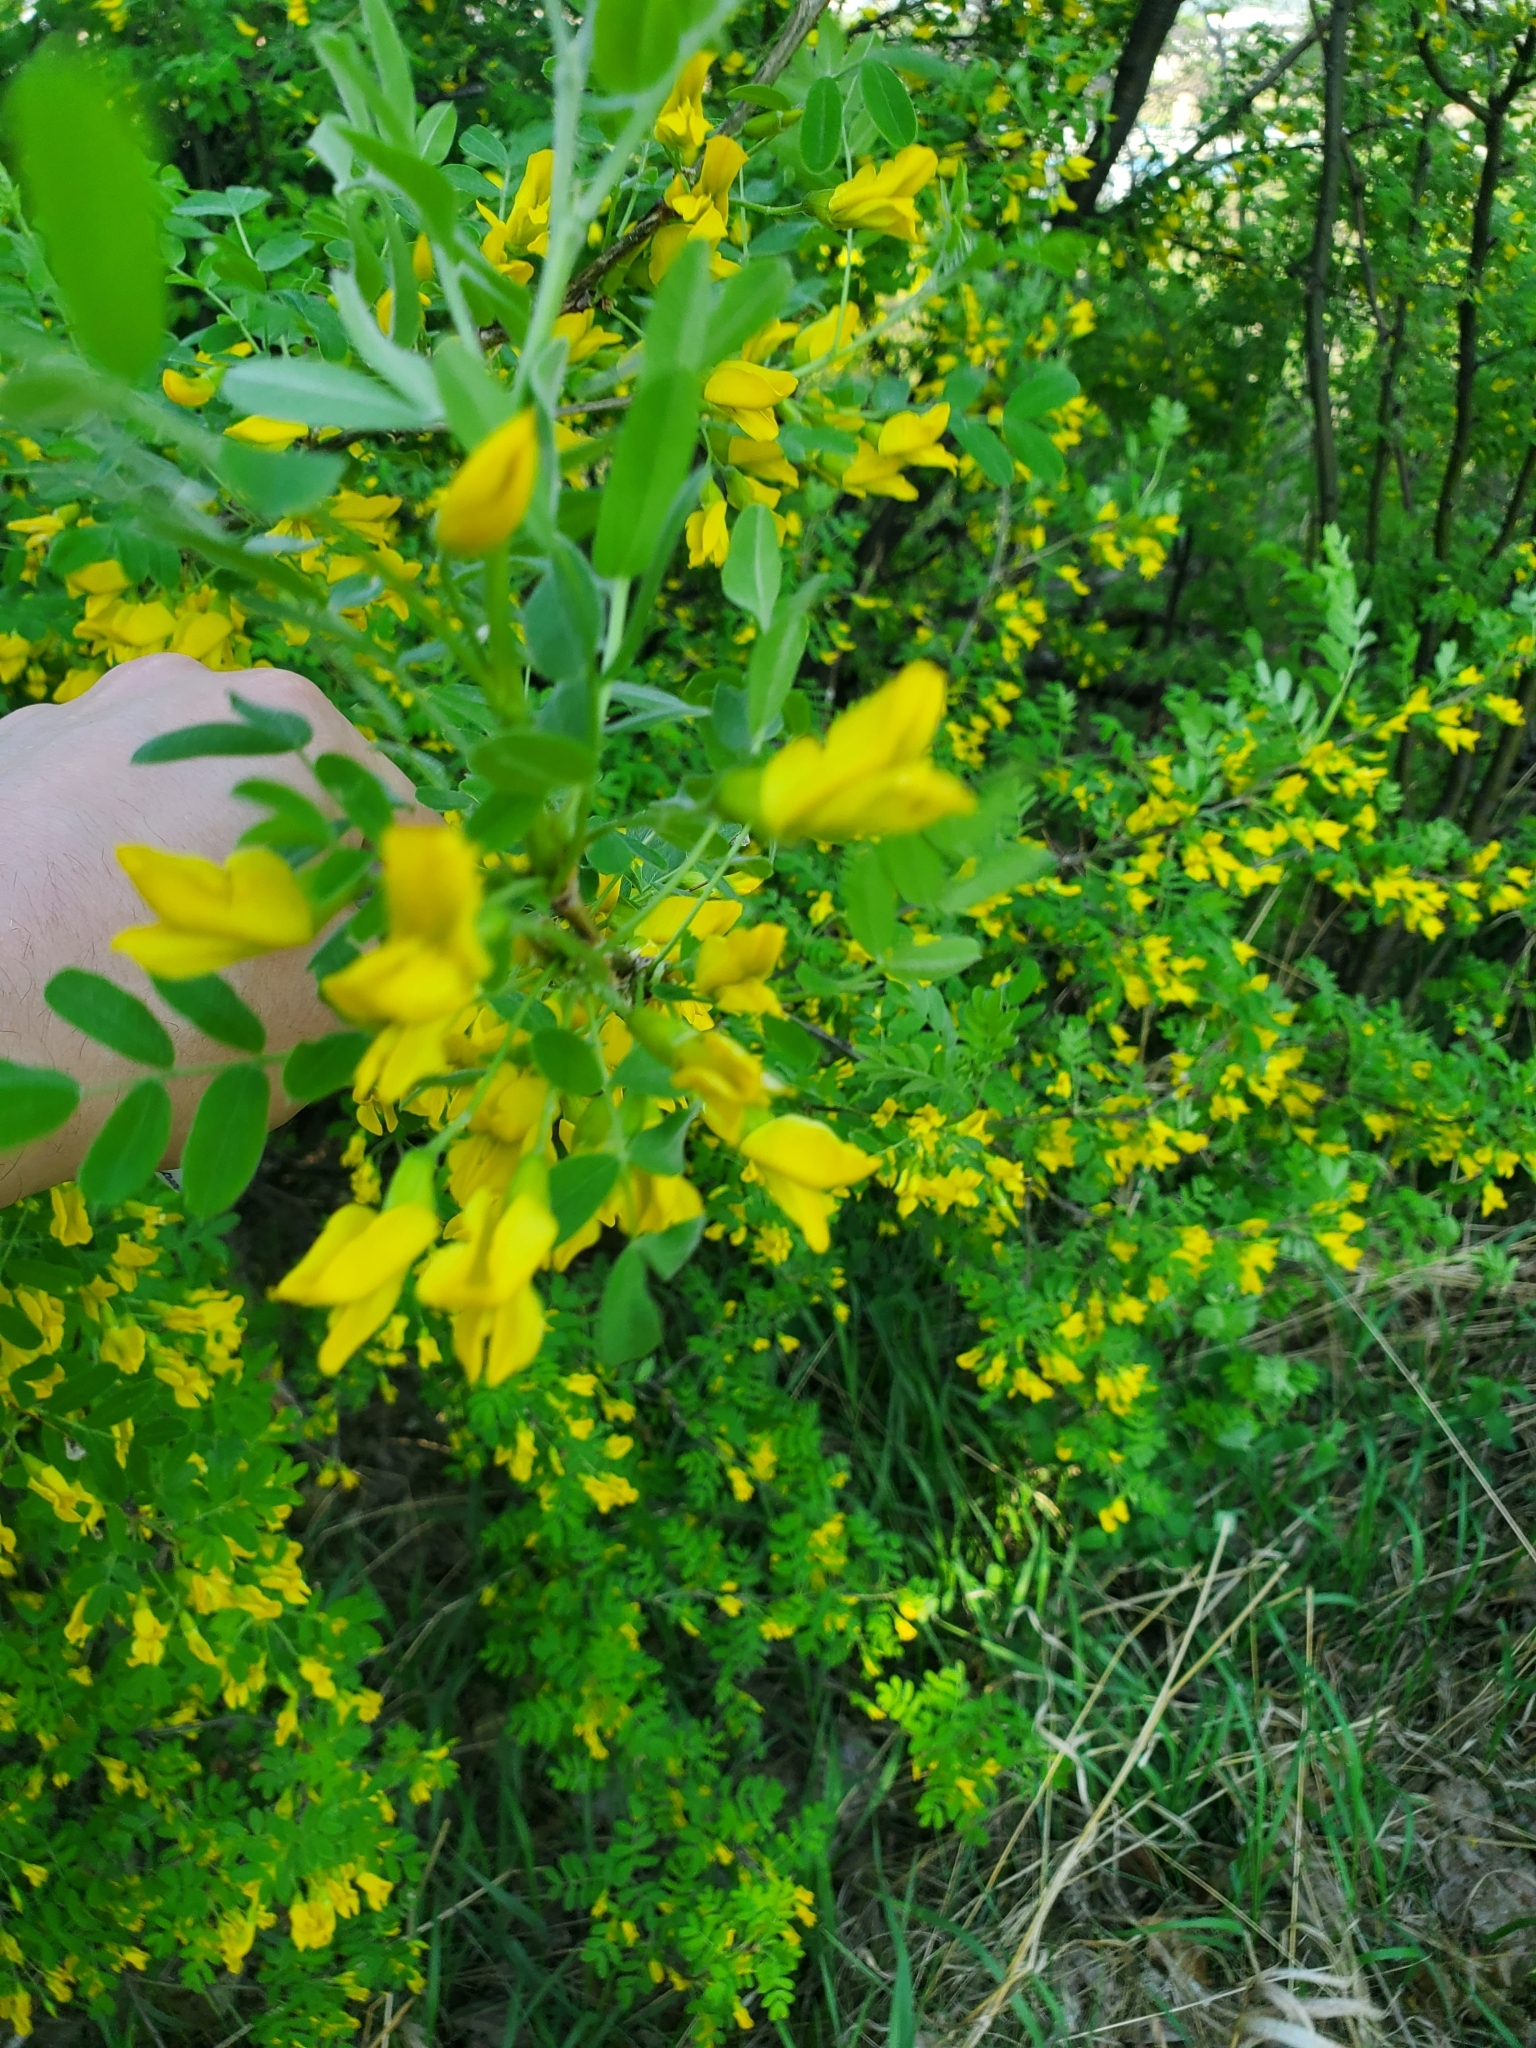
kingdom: Plantae
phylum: Tracheophyta
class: Magnoliopsida
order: Fabales
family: Fabaceae
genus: Caragana
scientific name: Caragana arborescens
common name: Siberian peashrub
